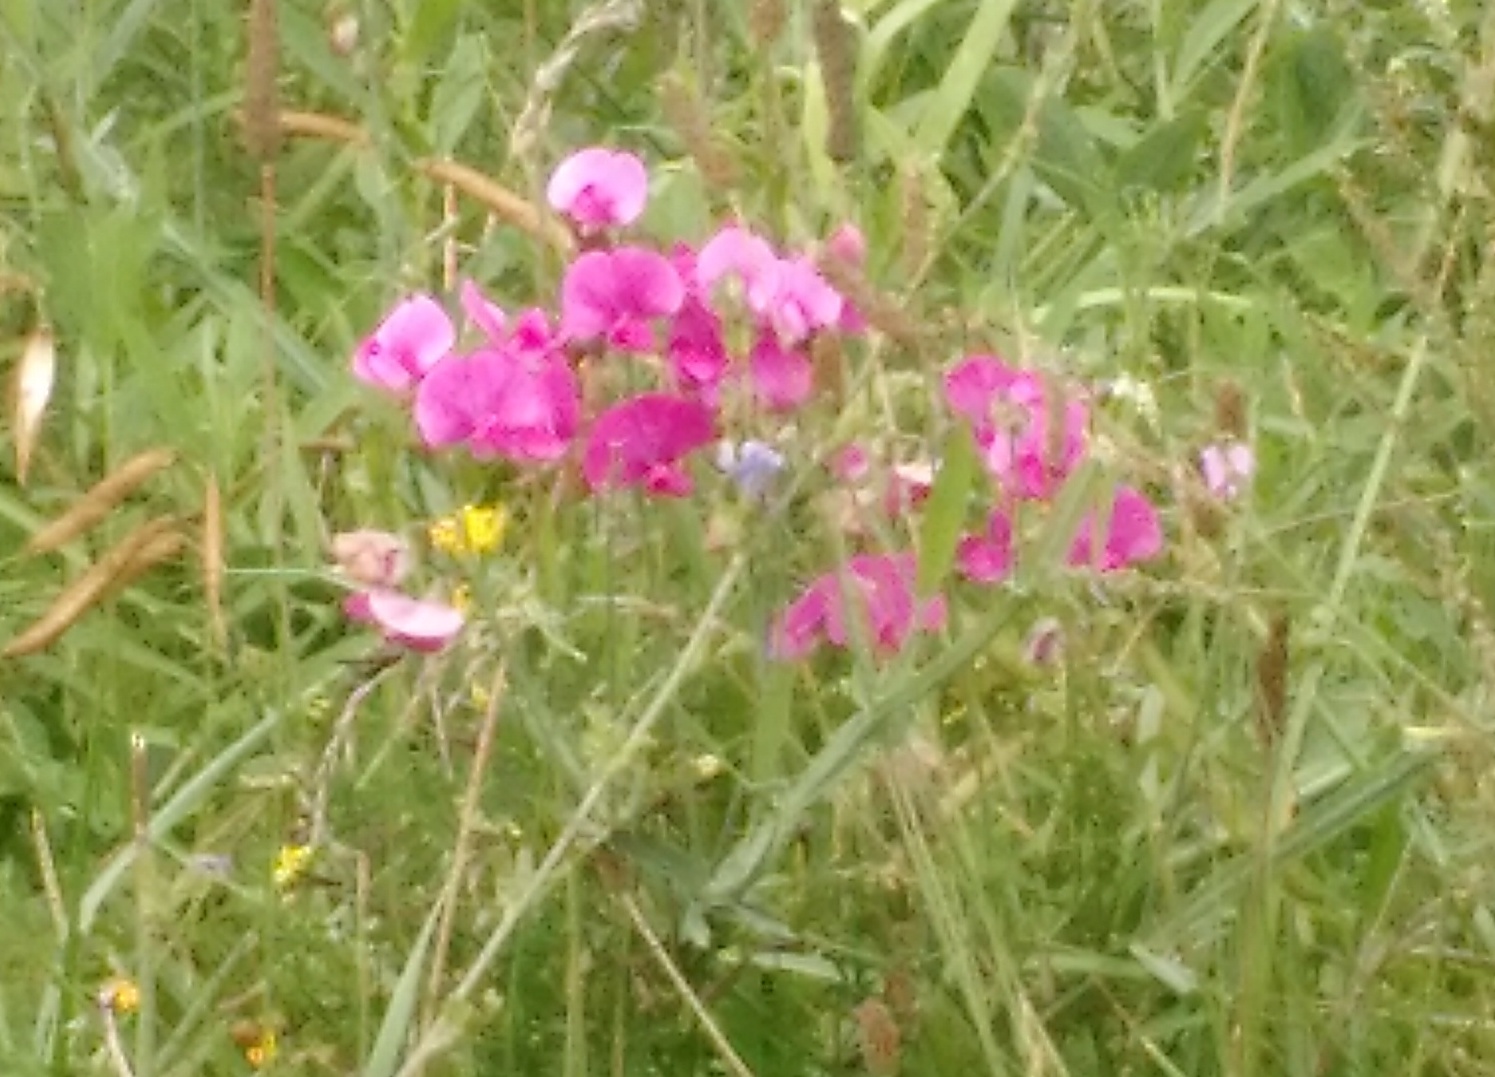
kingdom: Plantae
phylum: Tracheophyta
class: Magnoliopsida
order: Fabales
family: Fabaceae
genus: Lathyrus
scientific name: Lathyrus latifolius
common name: Perennial pea
